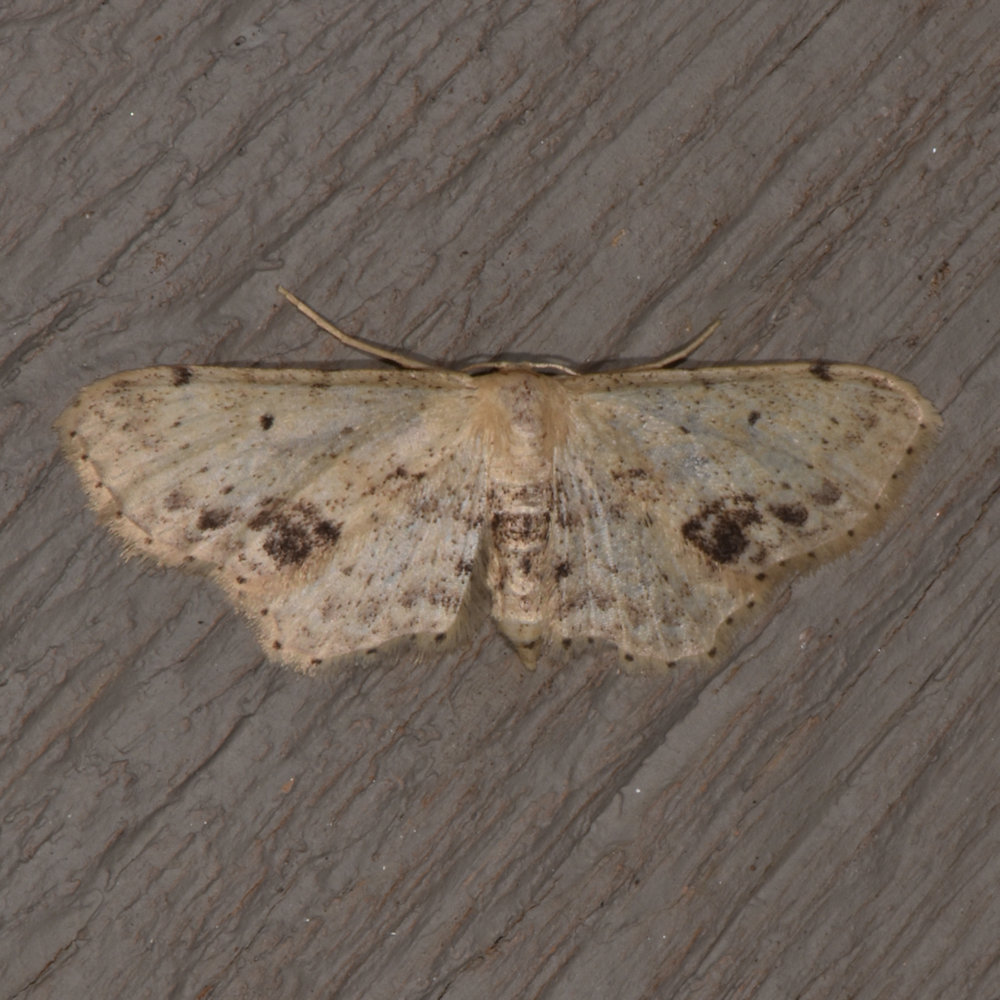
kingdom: Animalia
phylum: Arthropoda
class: Insecta
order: Lepidoptera
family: Geometridae
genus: Idaea
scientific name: Idaea dimidiata
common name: Single-dotted wave
